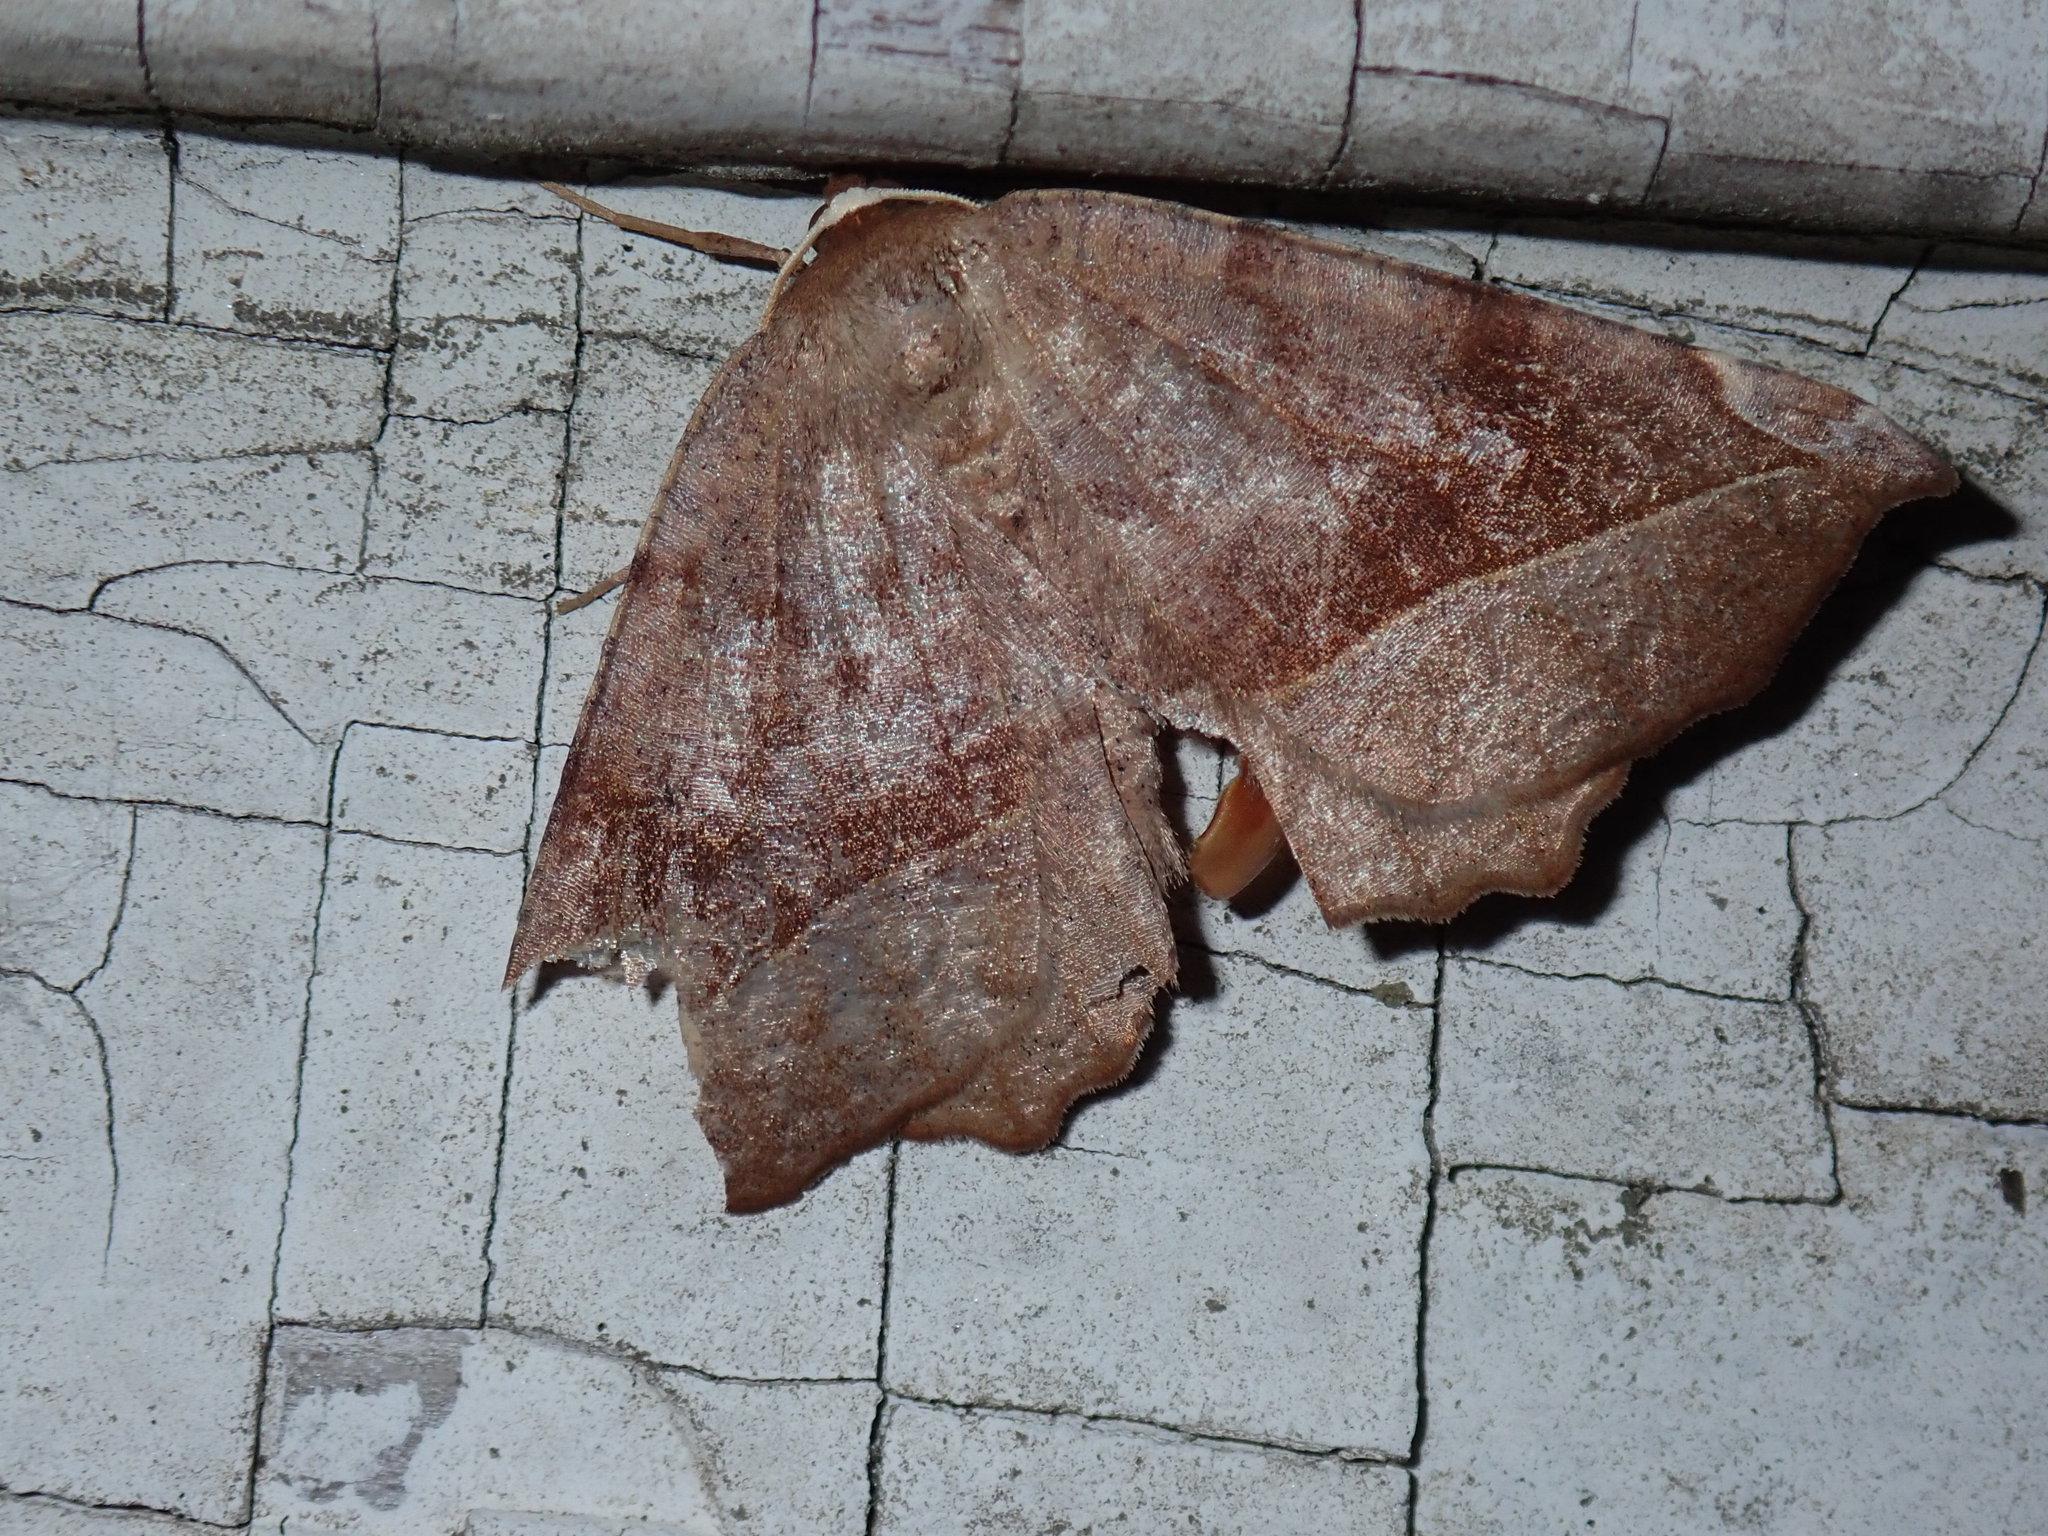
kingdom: Animalia
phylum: Arthropoda
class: Insecta
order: Lepidoptera
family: Geometridae
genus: Eutrapela
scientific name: Eutrapela clemataria
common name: Curved-toothed geometer
